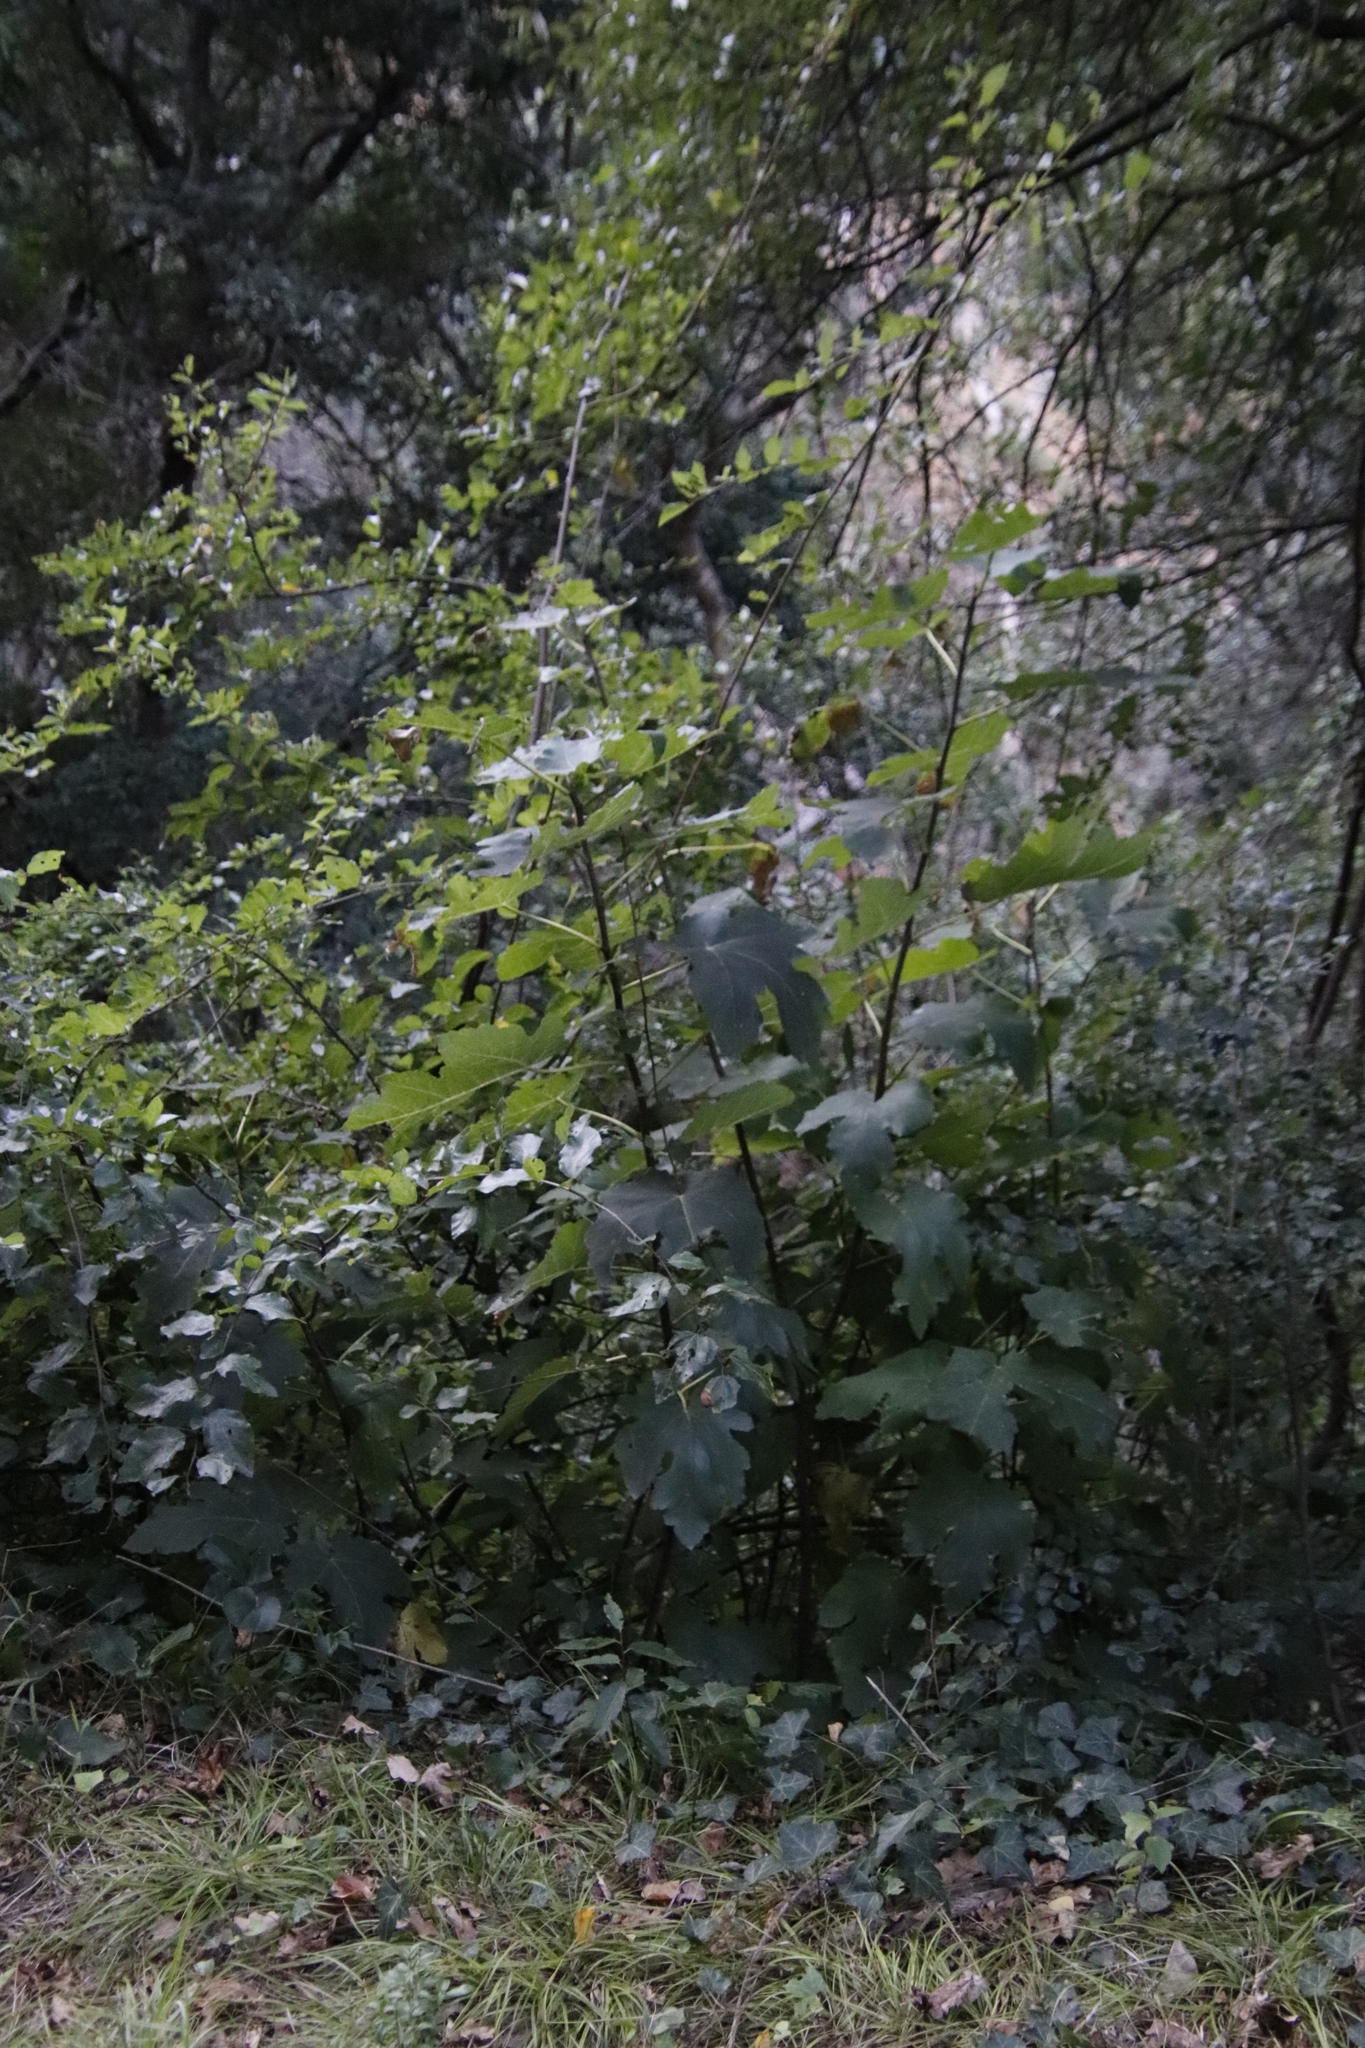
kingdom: Plantae
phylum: Tracheophyta
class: Magnoliopsida
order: Rosales
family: Moraceae
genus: Ficus
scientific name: Ficus carica
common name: Fig
